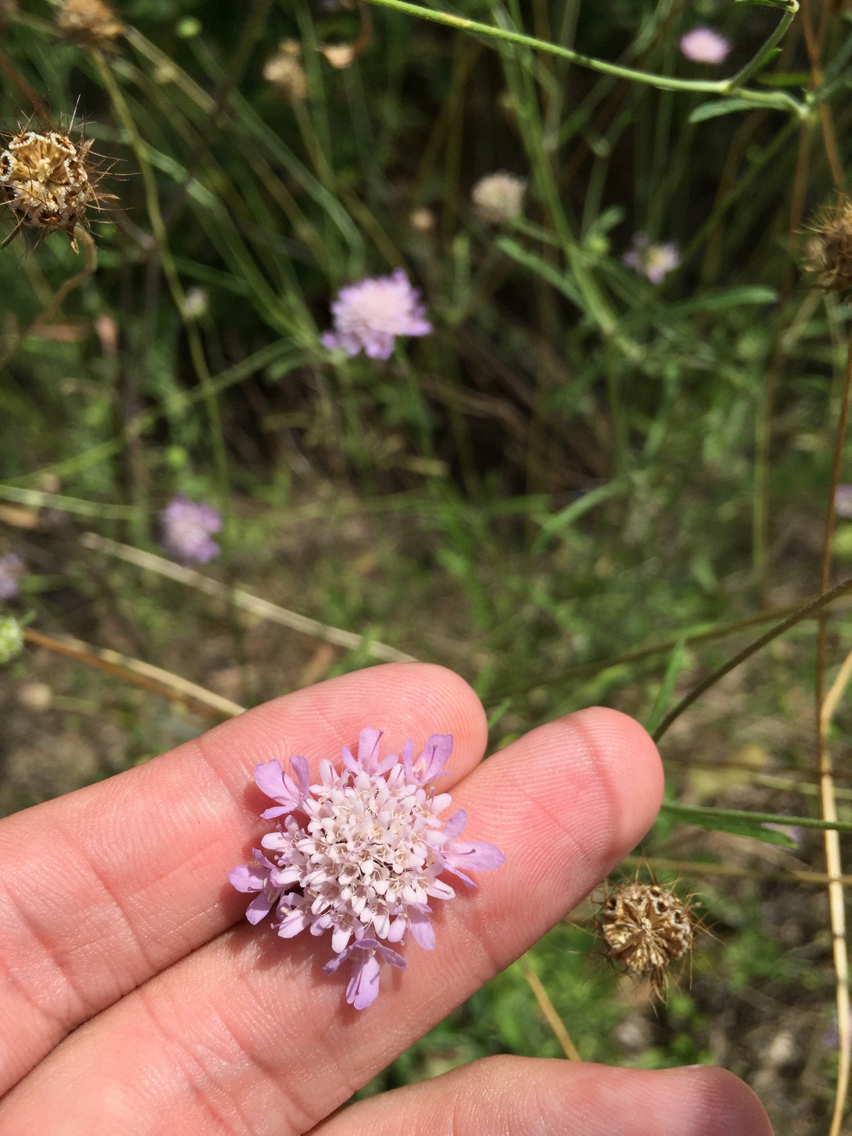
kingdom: Plantae
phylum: Tracheophyta
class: Magnoliopsida
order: Dipsacales
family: Caprifoliaceae
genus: Sixalix
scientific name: Sixalix atropurpurea
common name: Sweet scabious
